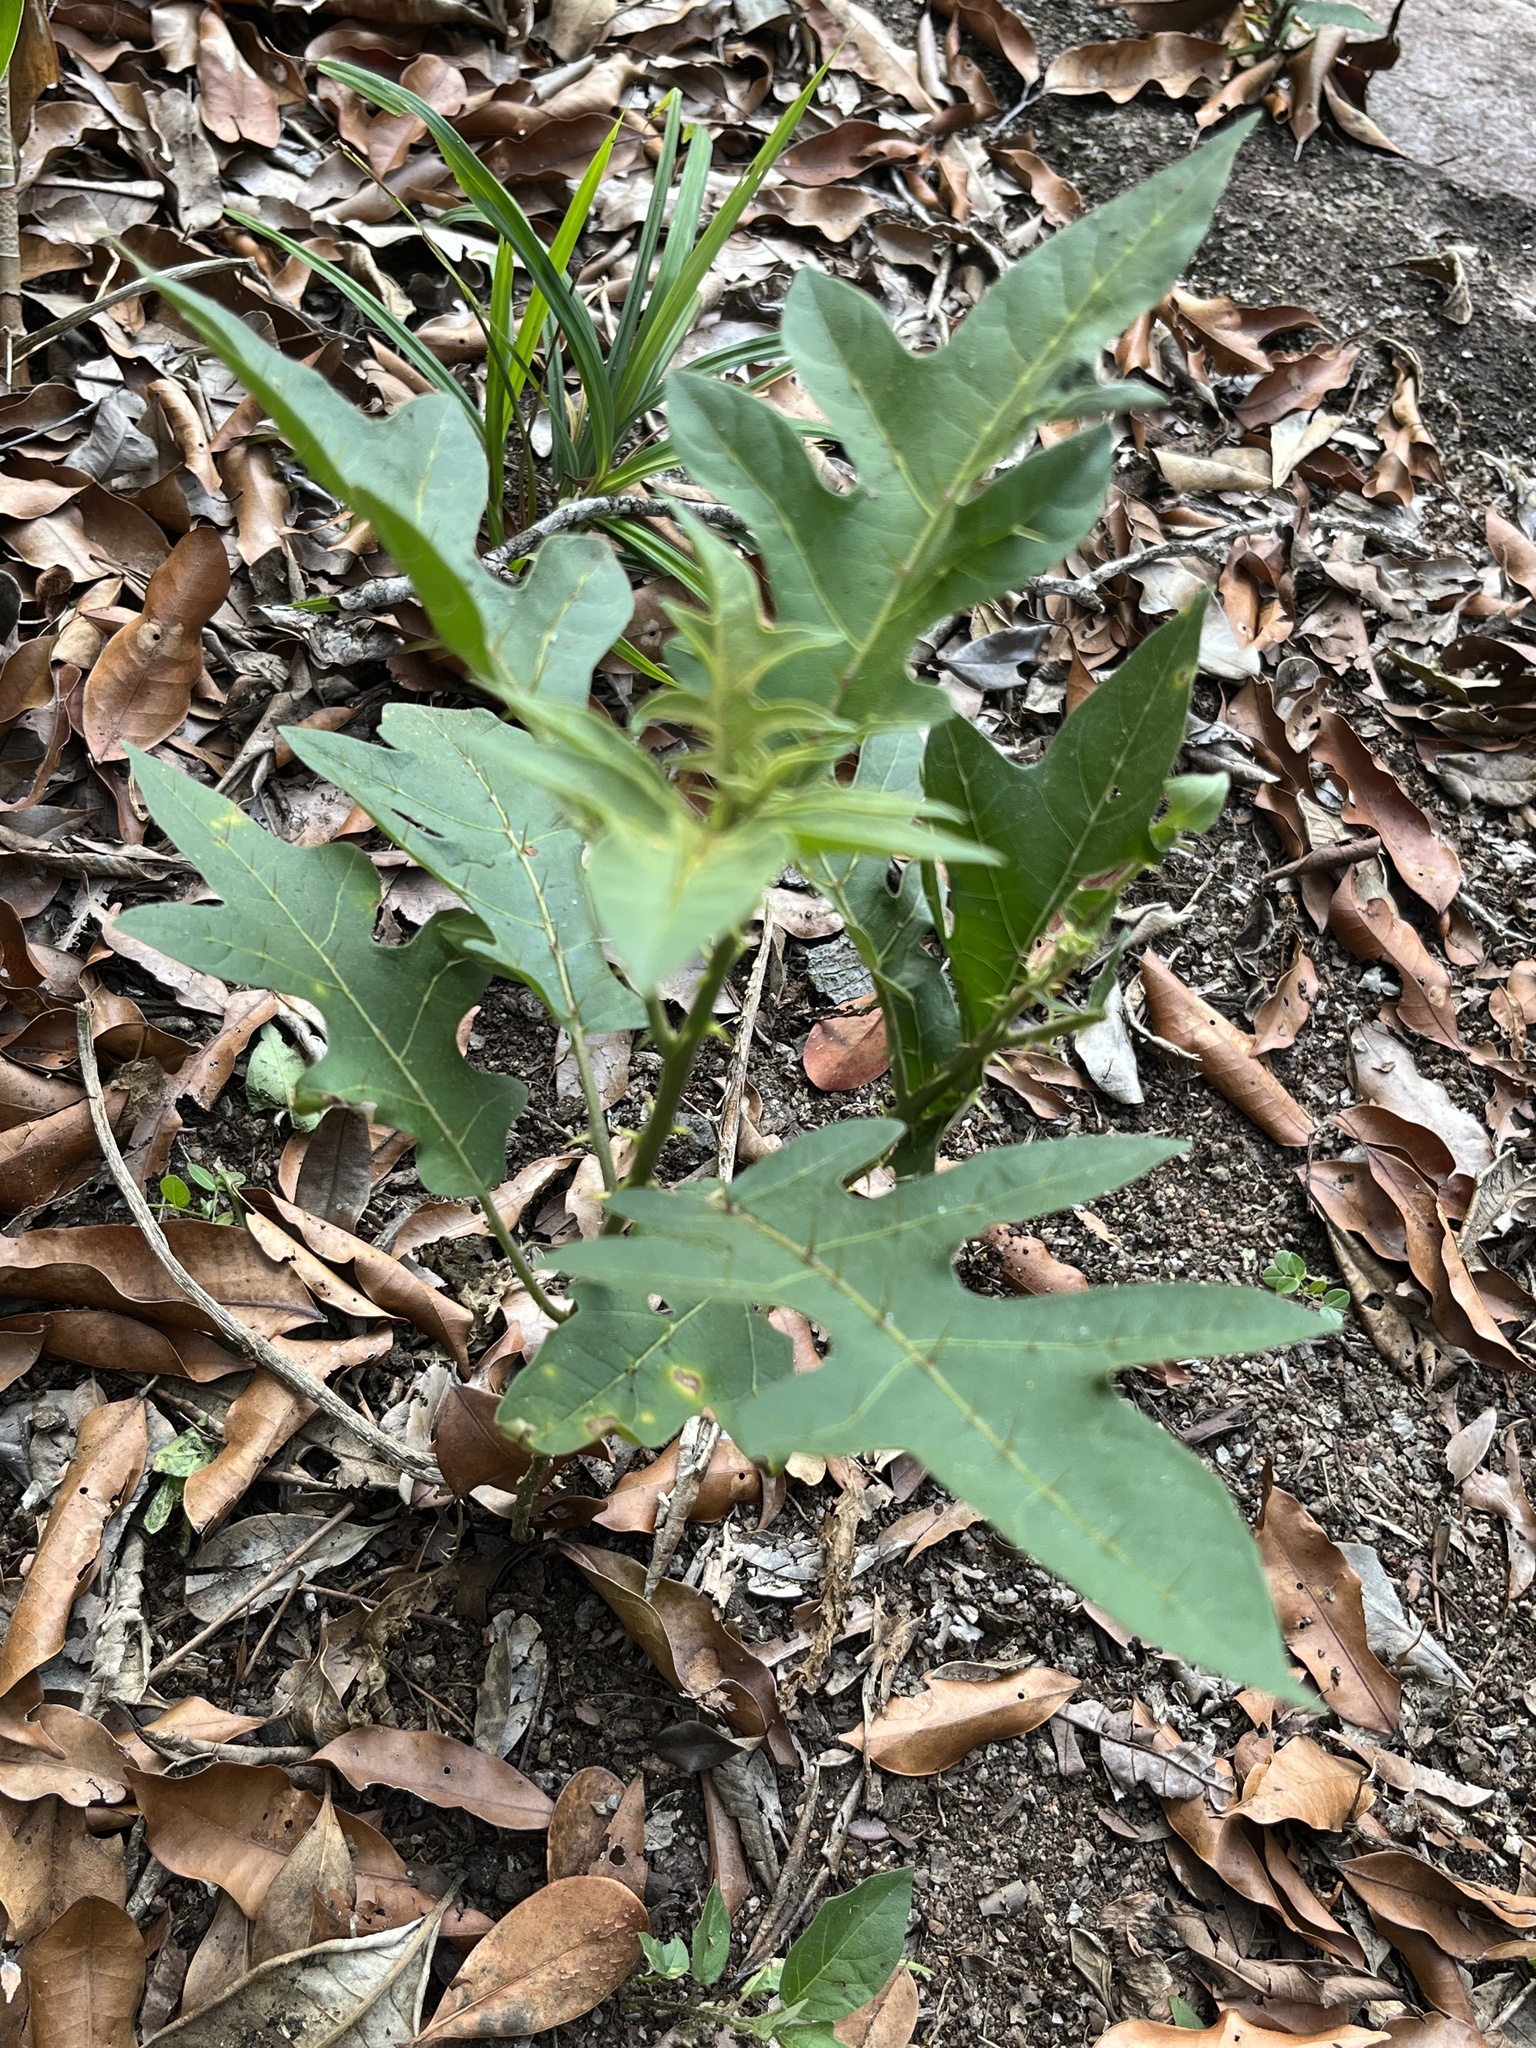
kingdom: Plantae
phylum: Tracheophyta
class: Magnoliopsida
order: Solanales
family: Solanaceae
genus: Solanum
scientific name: Solanum
